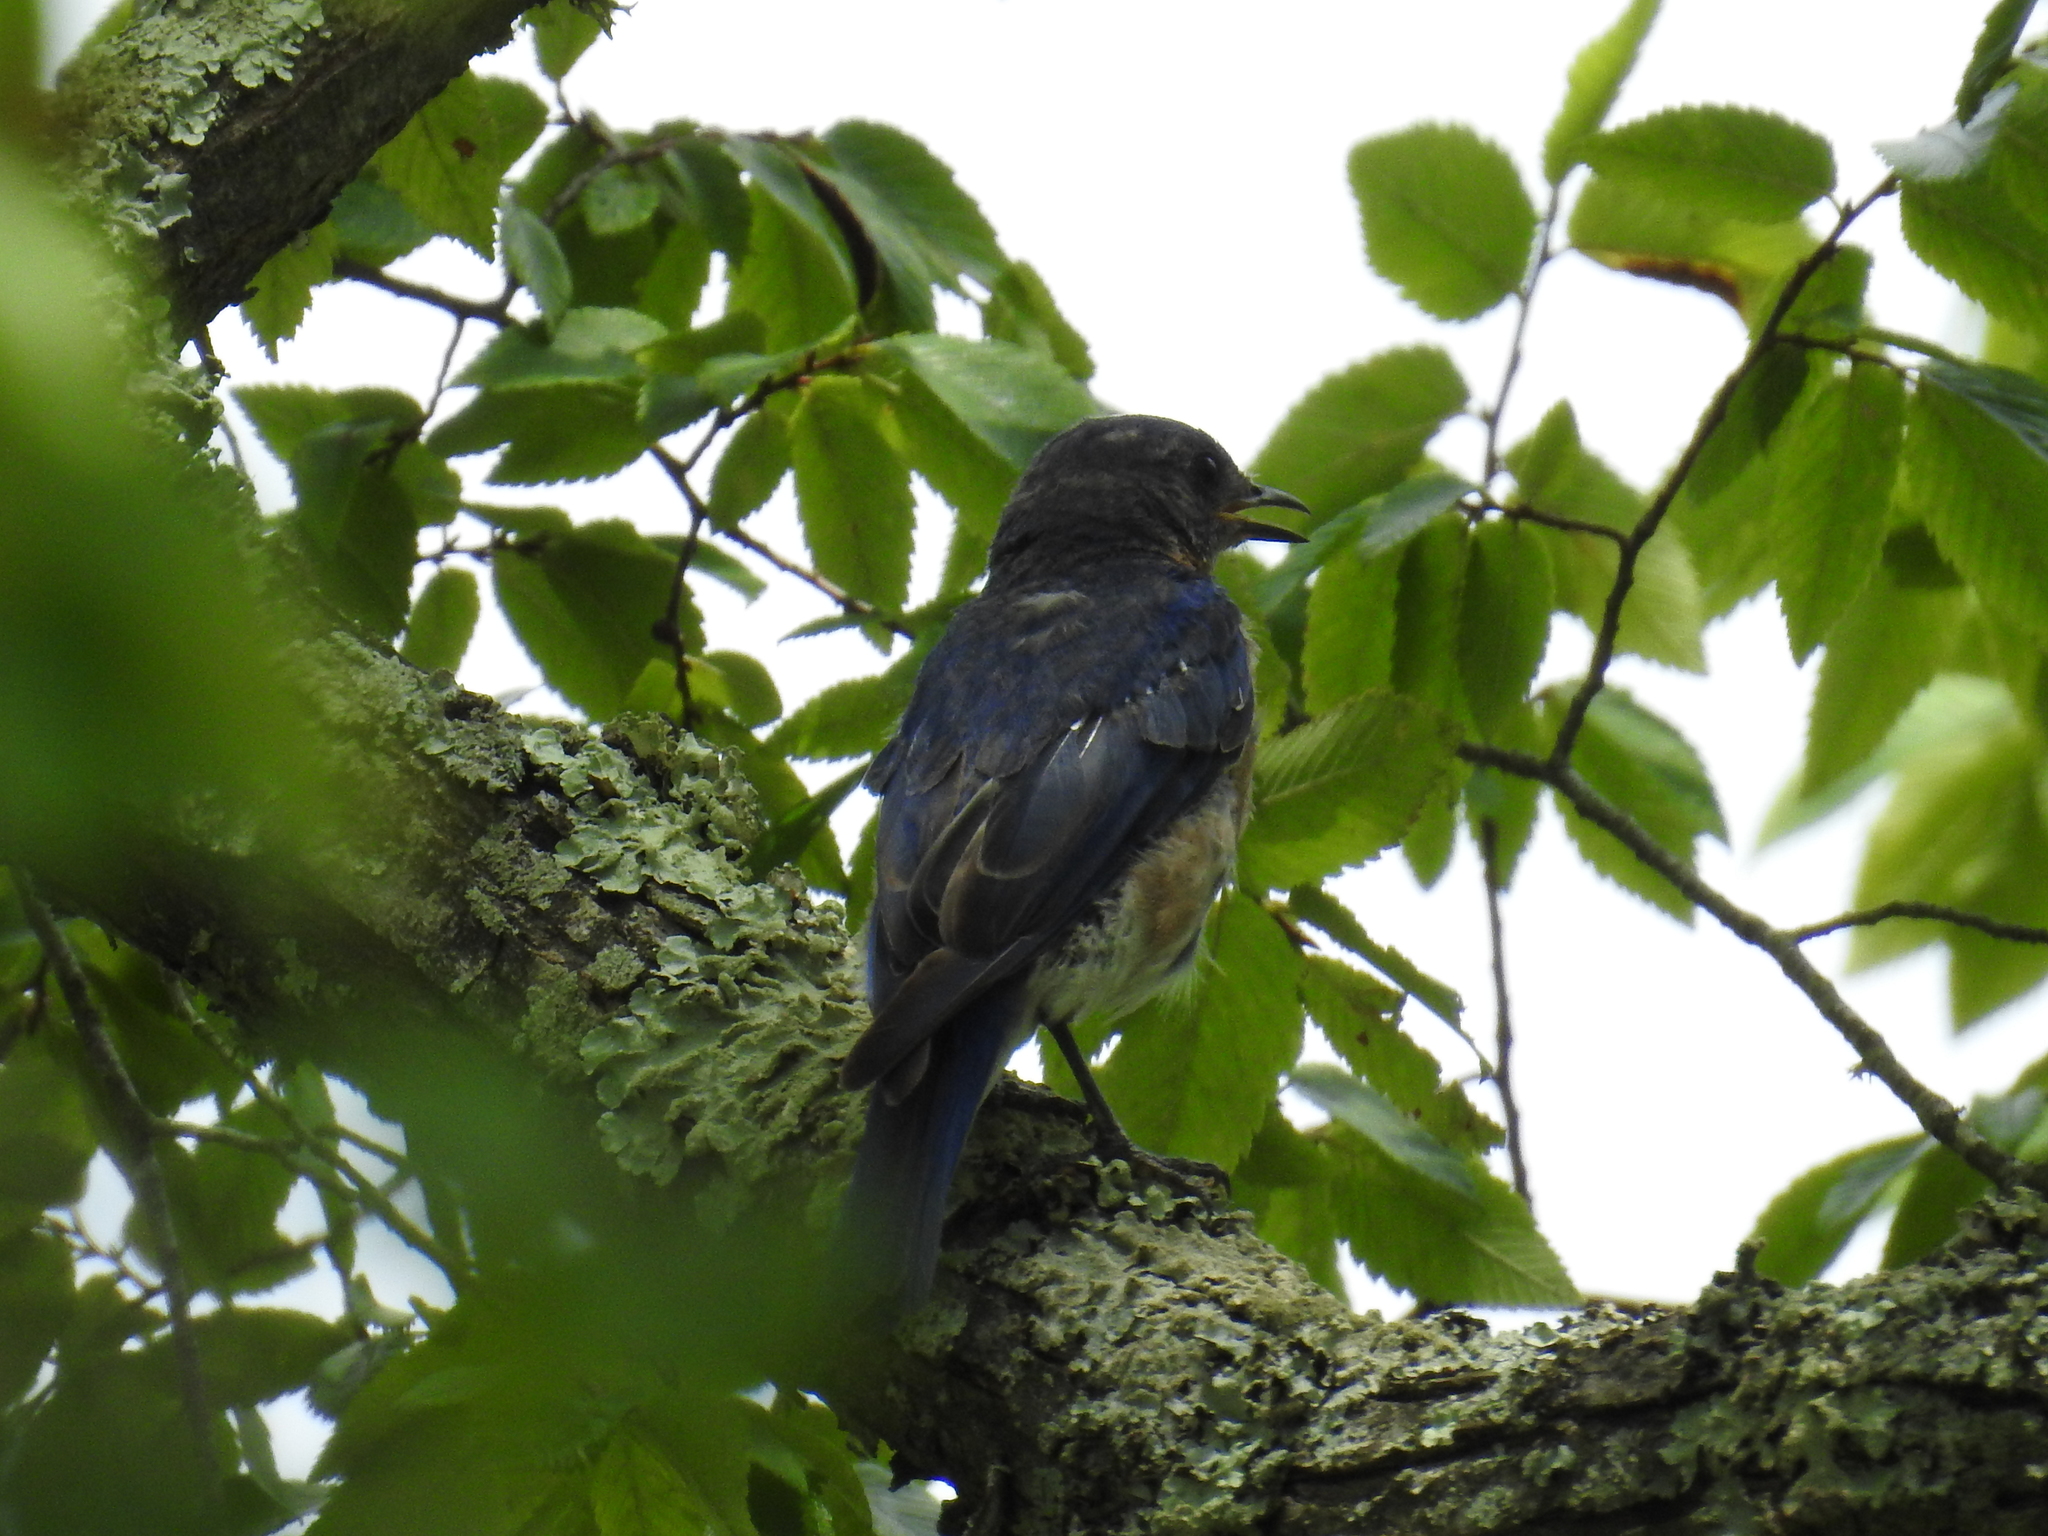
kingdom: Animalia
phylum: Chordata
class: Aves
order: Passeriformes
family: Turdidae
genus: Sialia
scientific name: Sialia sialis
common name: Eastern bluebird
